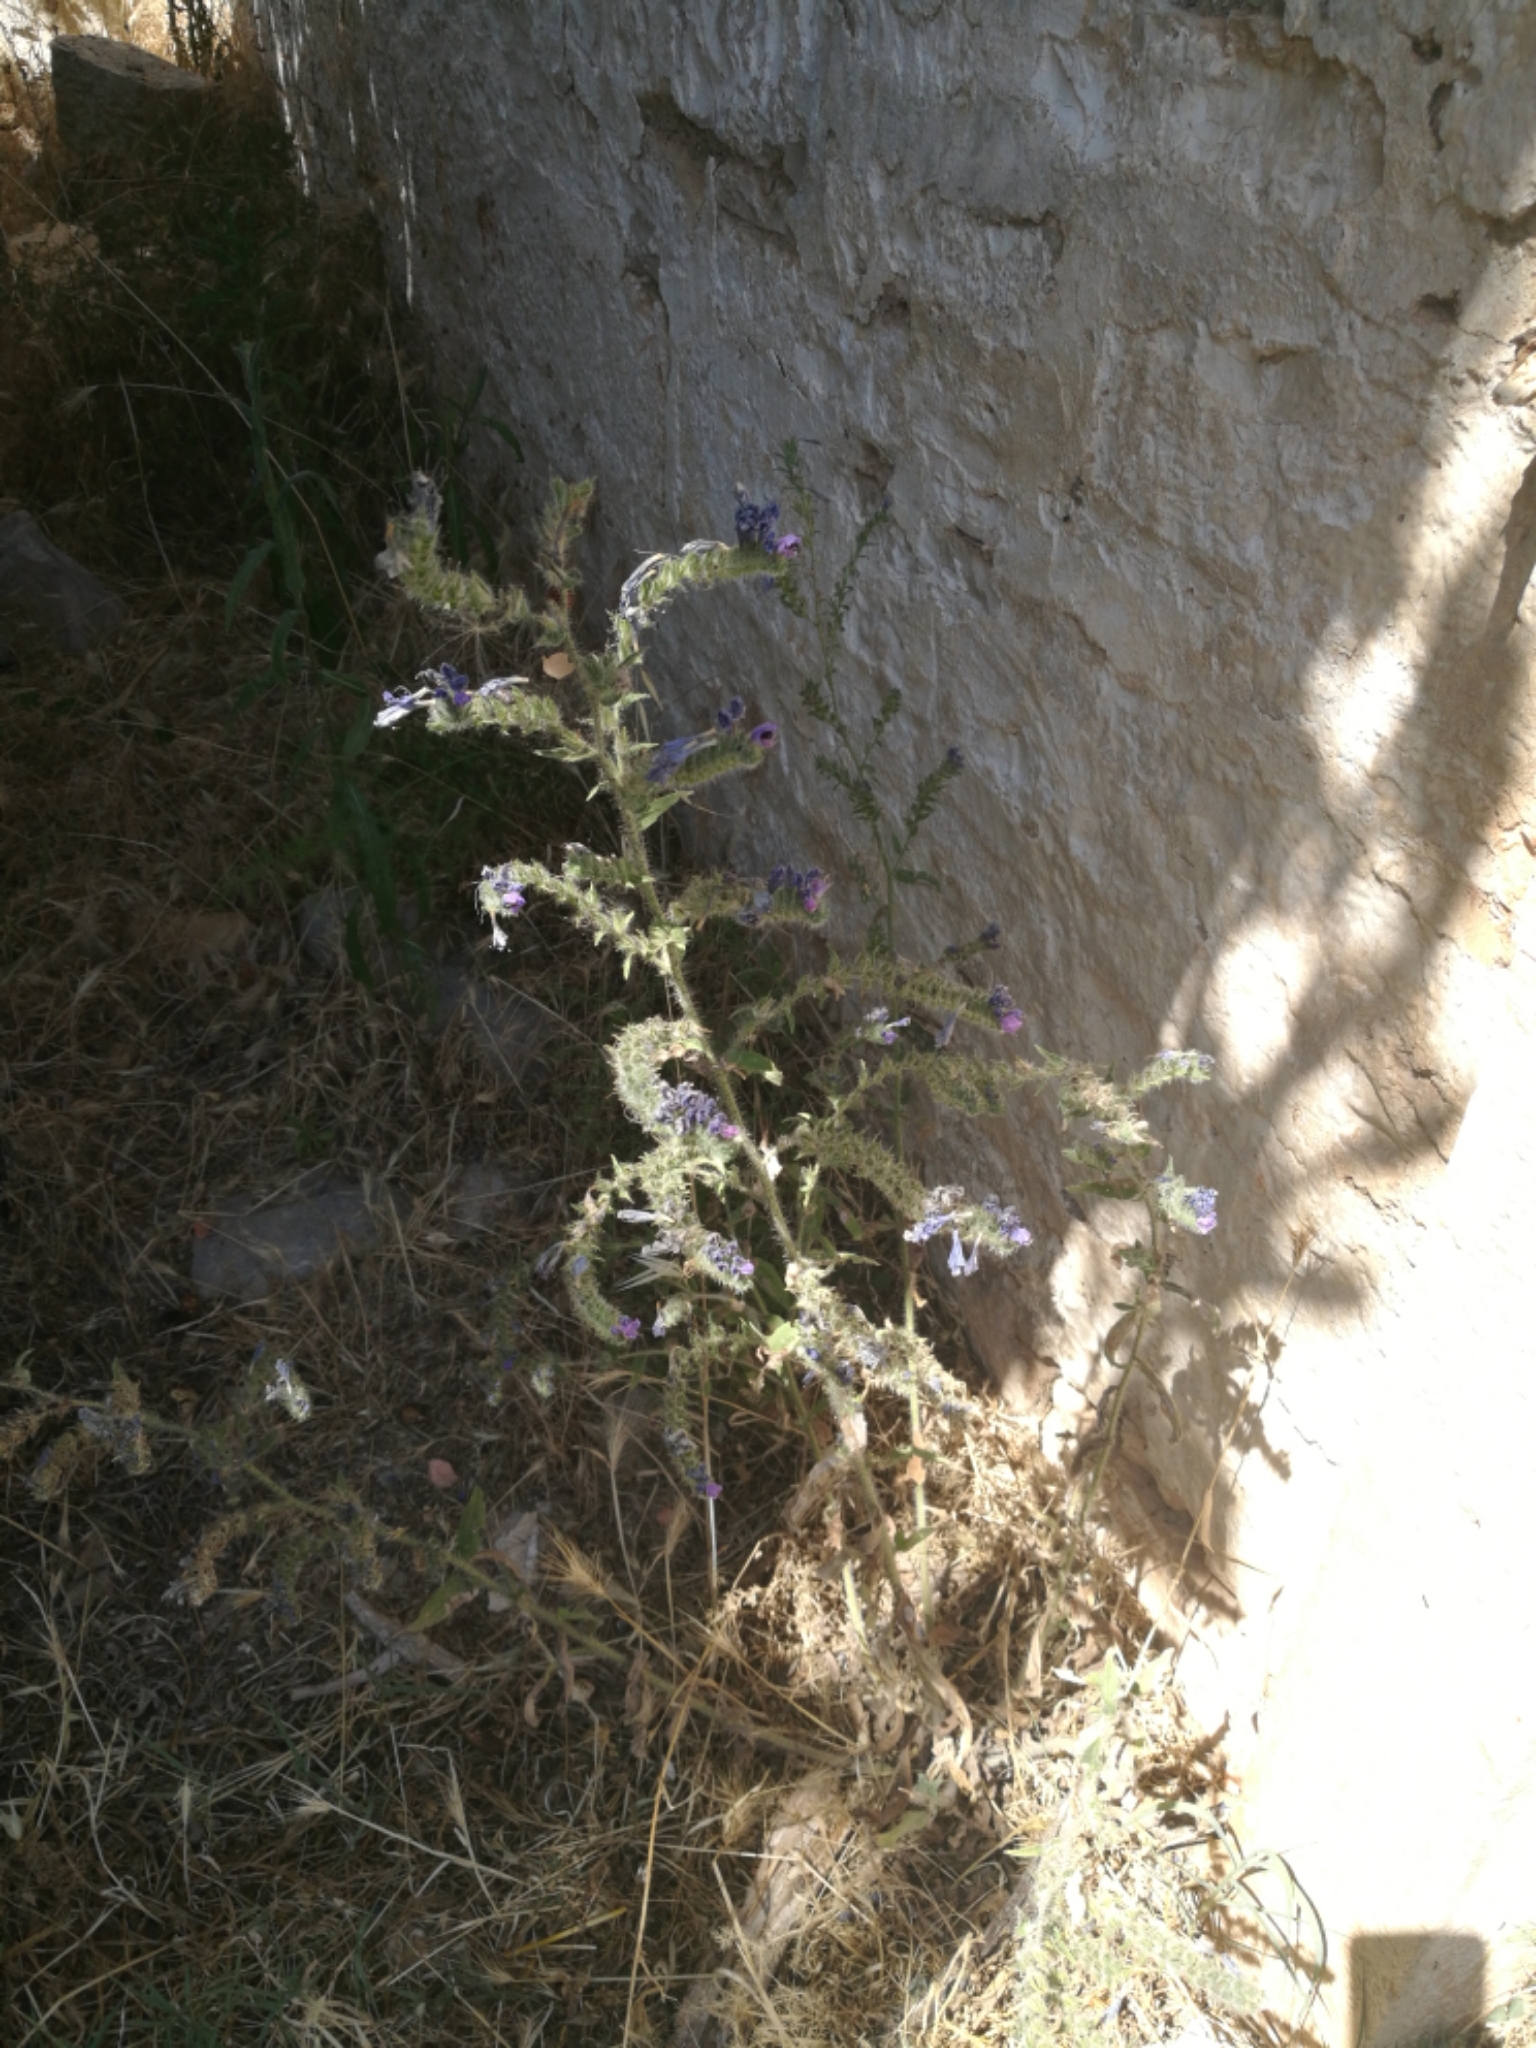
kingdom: Plantae
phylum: Tracheophyta
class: Magnoliopsida
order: Boraginales
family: Boraginaceae
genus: Echium
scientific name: Echium vulgare
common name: Common viper's bugloss
